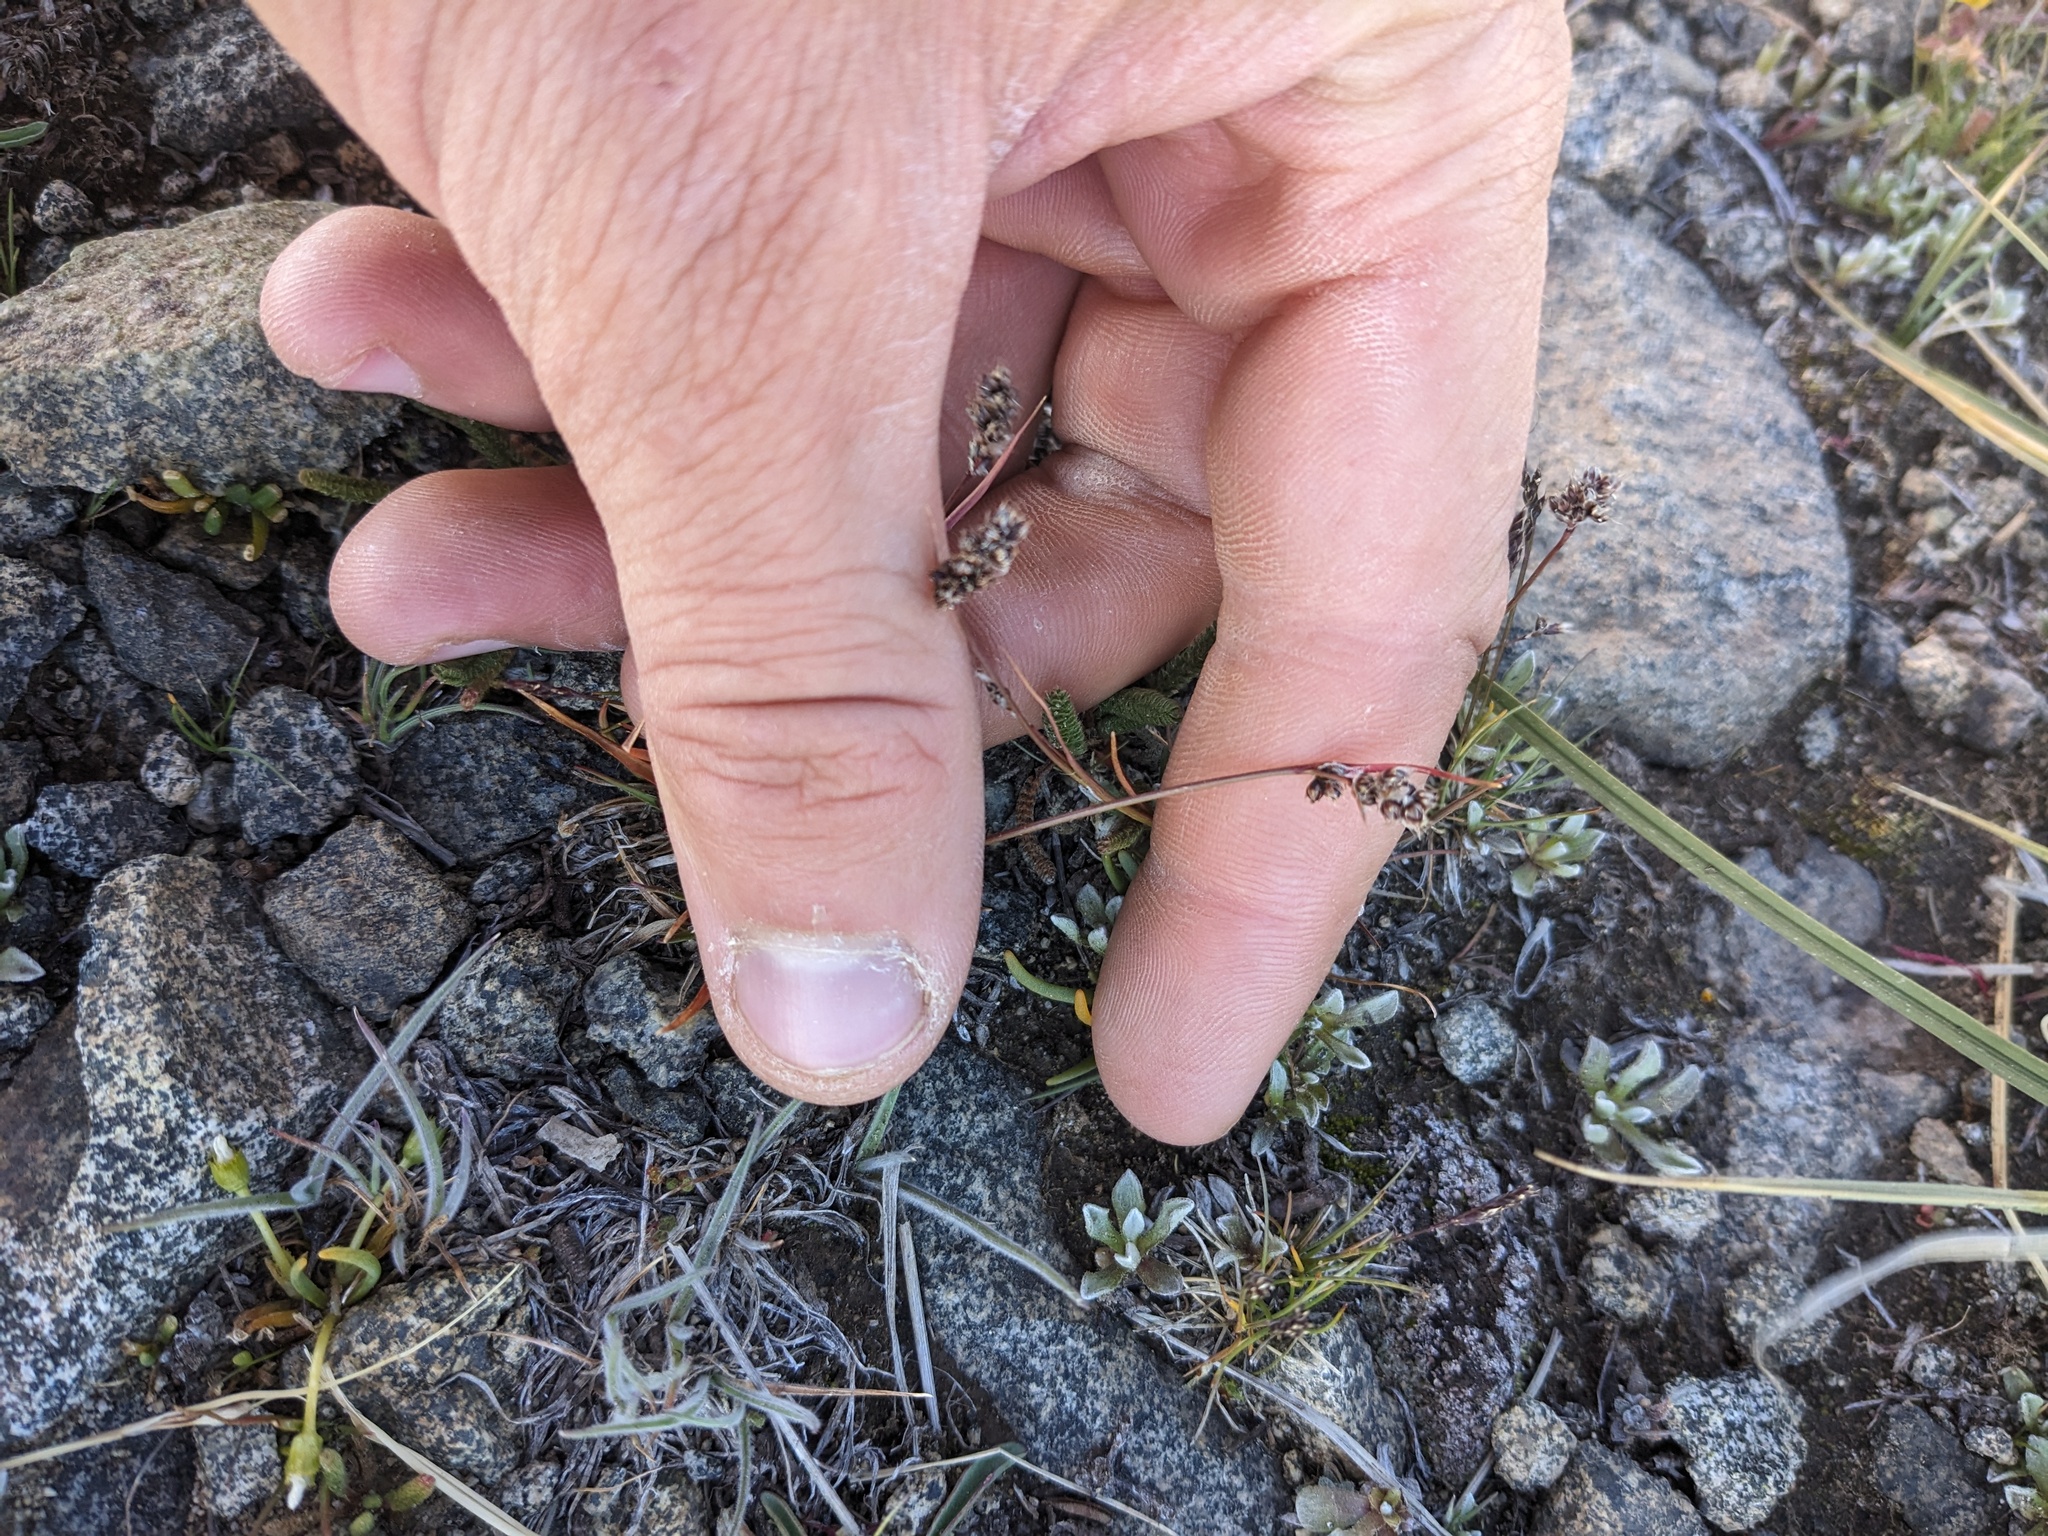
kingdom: Plantae
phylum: Tracheophyta
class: Liliopsida
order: Poales
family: Juncaceae
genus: Luzula
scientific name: Luzula spicata
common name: Spiked wood-rush
